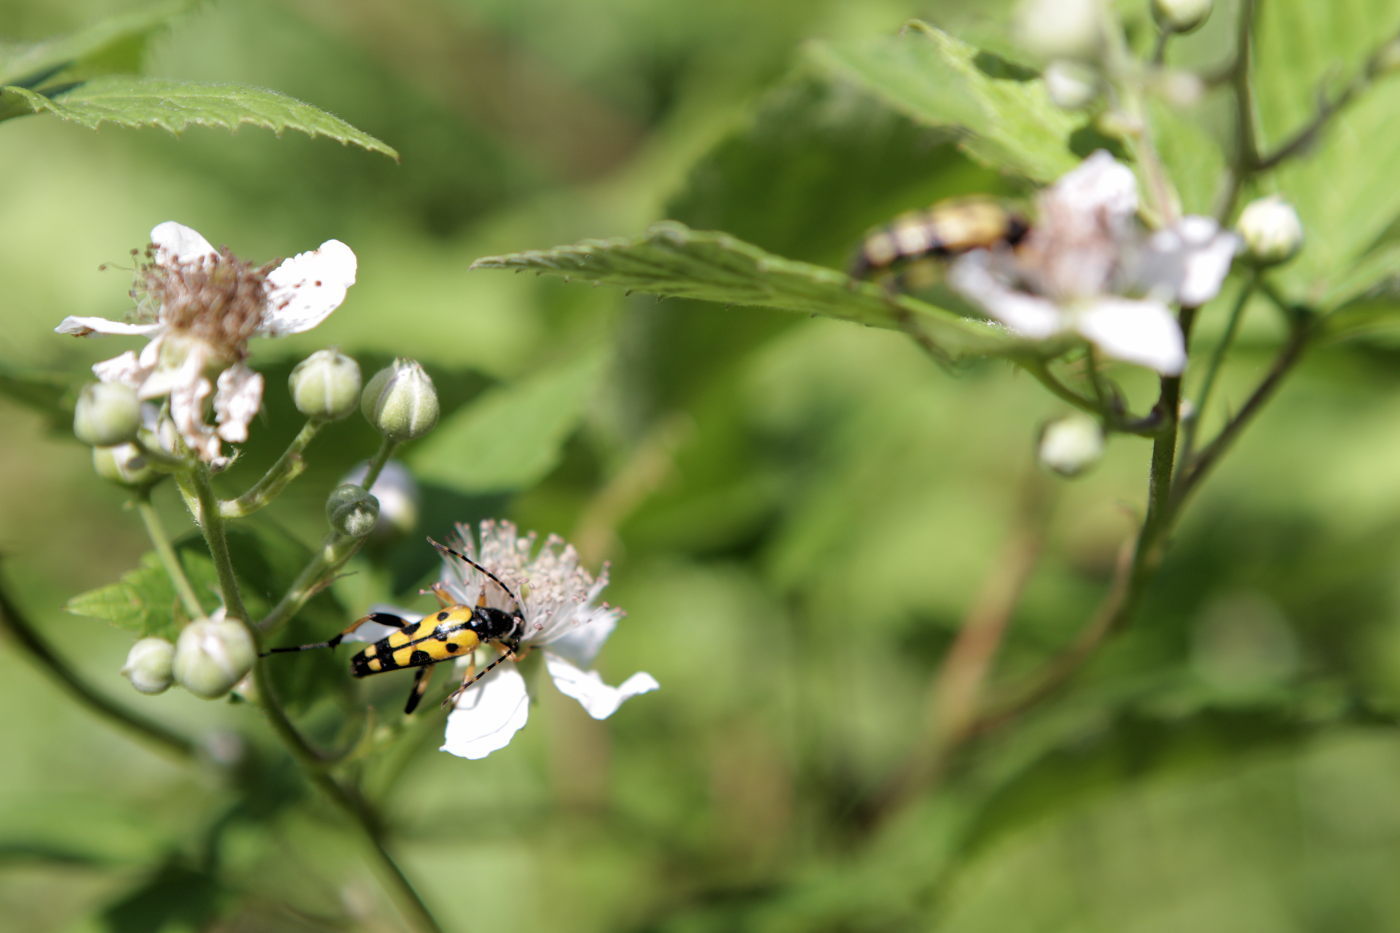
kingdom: Animalia
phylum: Arthropoda
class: Insecta
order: Coleoptera
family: Cerambycidae
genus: Rutpela
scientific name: Rutpela maculata
